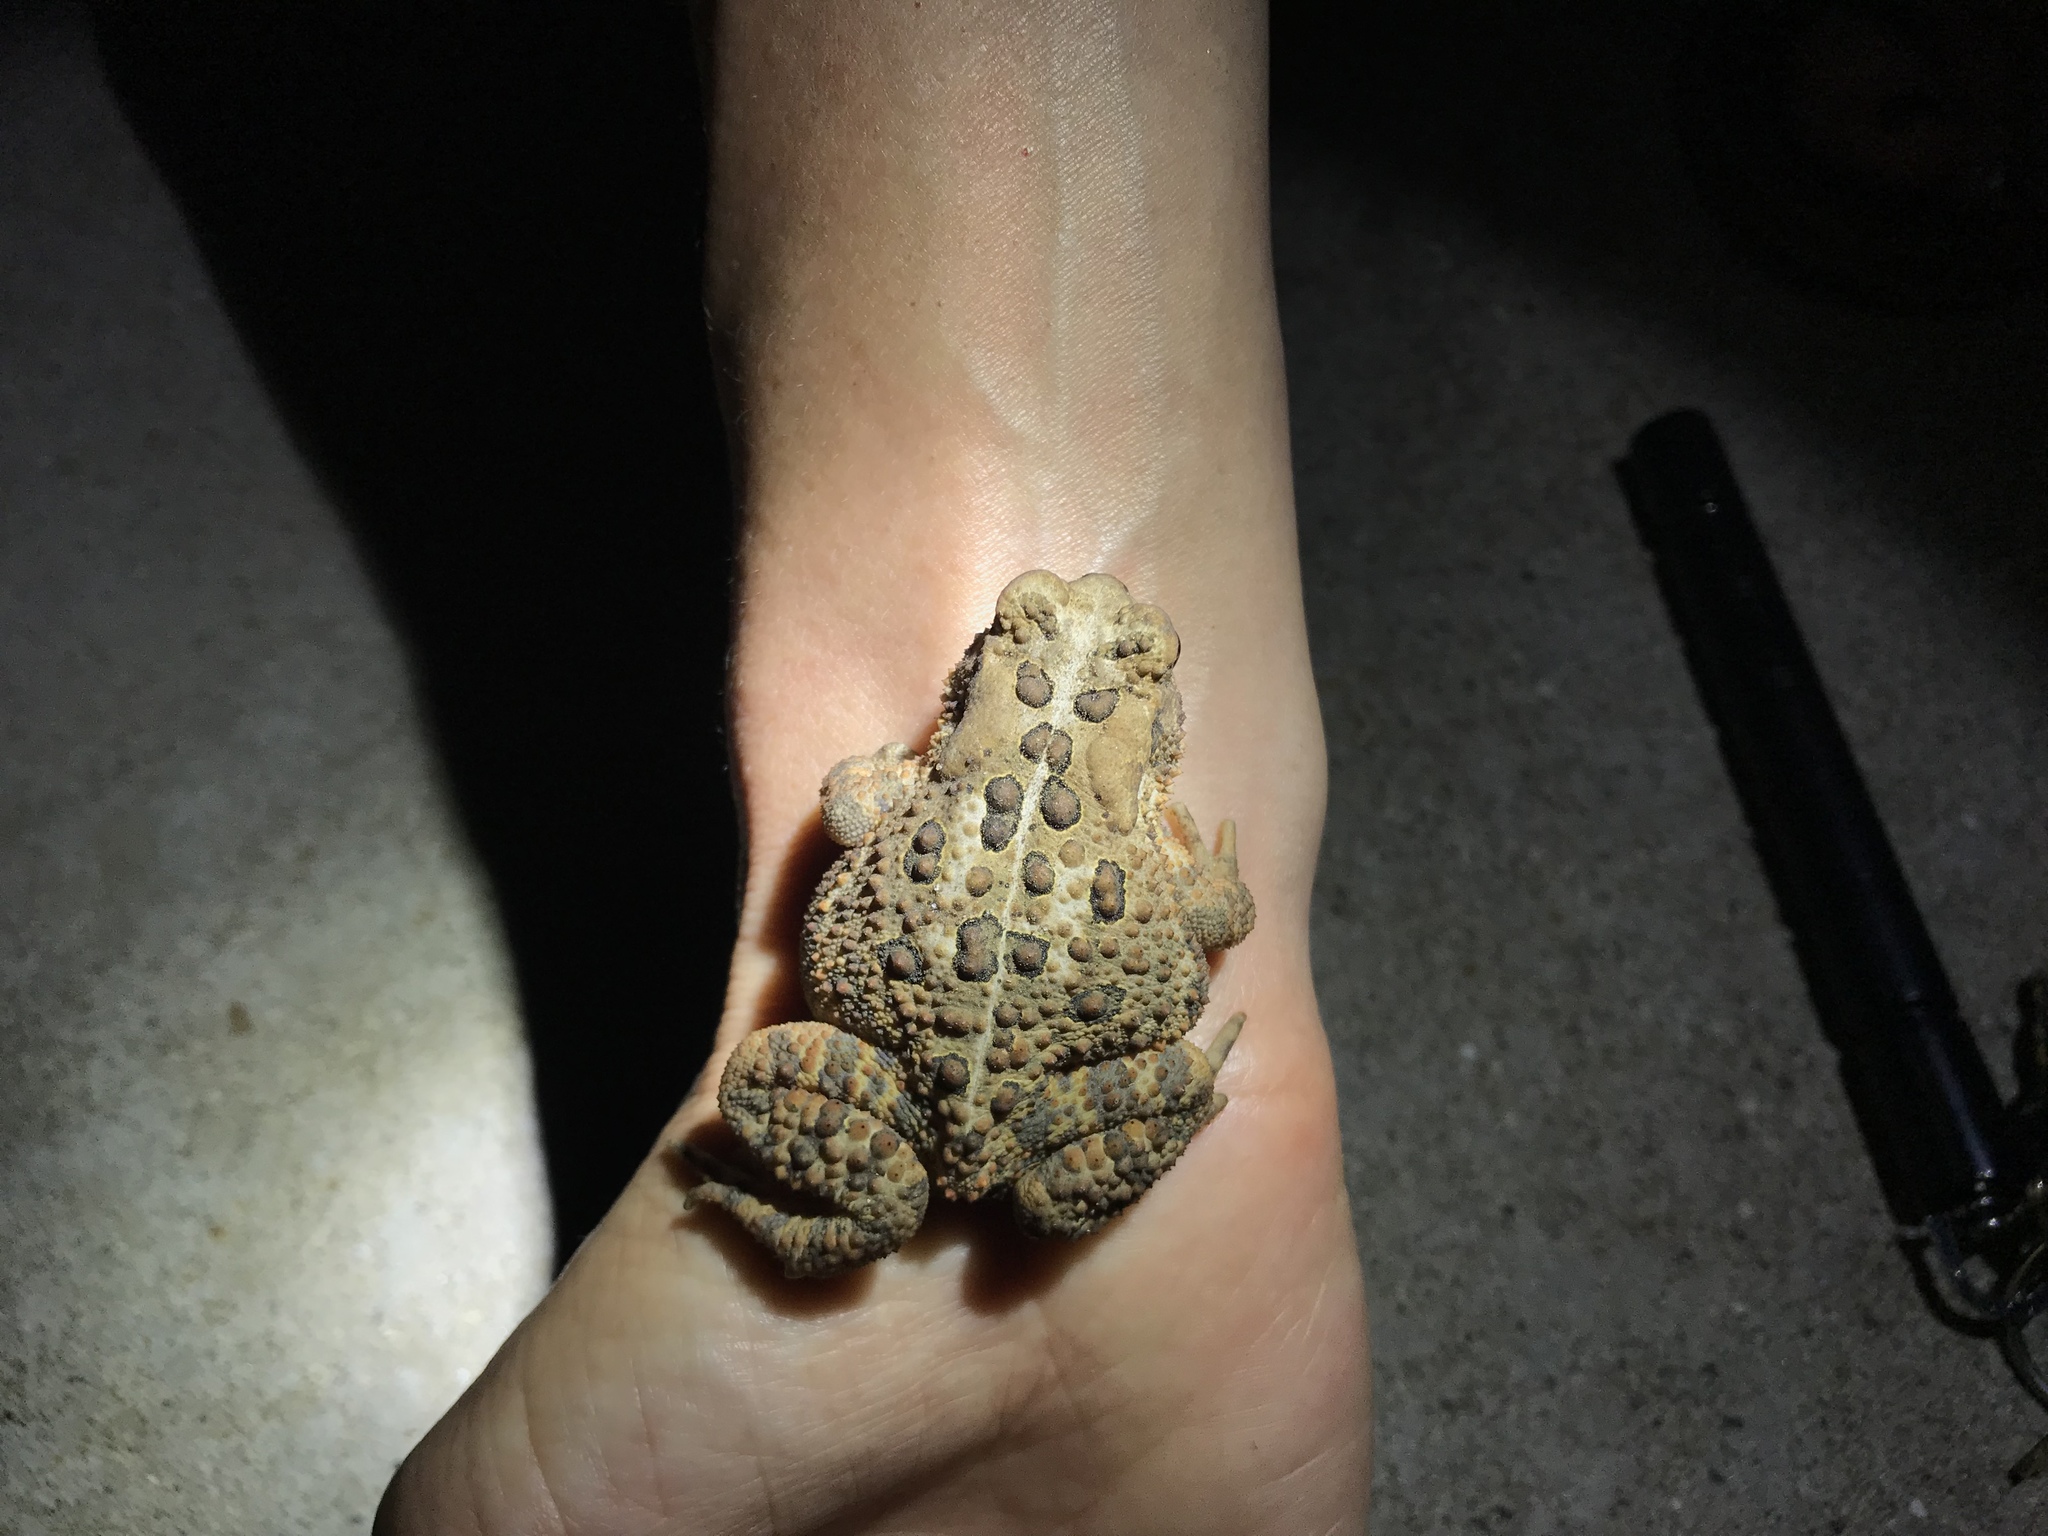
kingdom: Animalia
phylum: Chordata
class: Amphibia
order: Anura
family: Bufonidae
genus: Anaxyrus
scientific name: Anaxyrus americanus
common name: American toad
